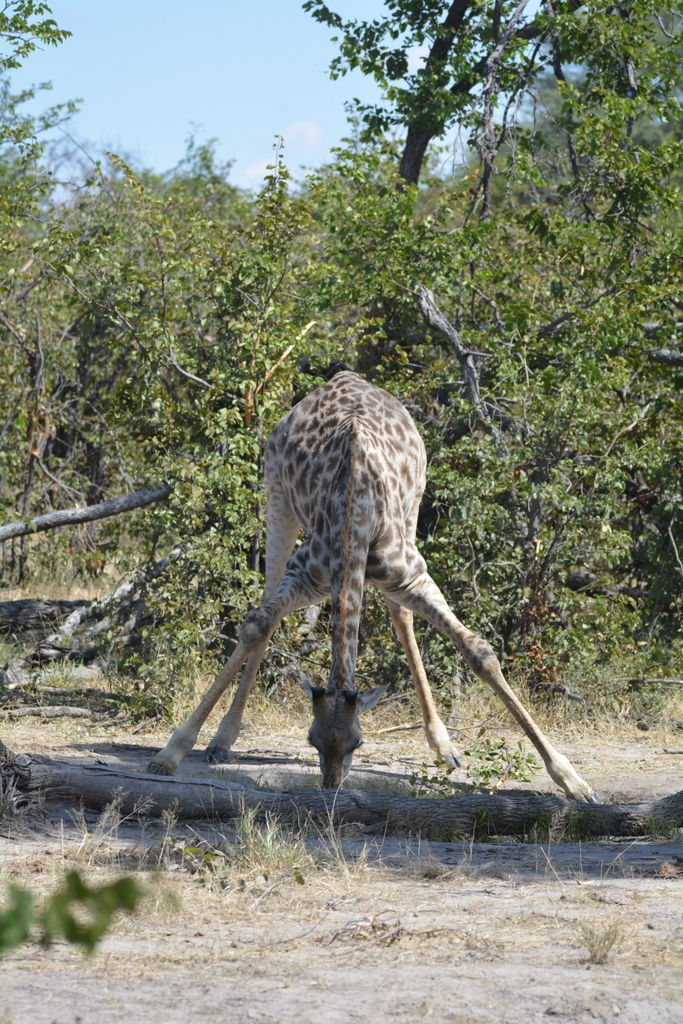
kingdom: Animalia
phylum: Chordata
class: Mammalia
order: Artiodactyla
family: Giraffidae
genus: Giraffa
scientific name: Giraffa giraffa
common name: Southern giraffe
